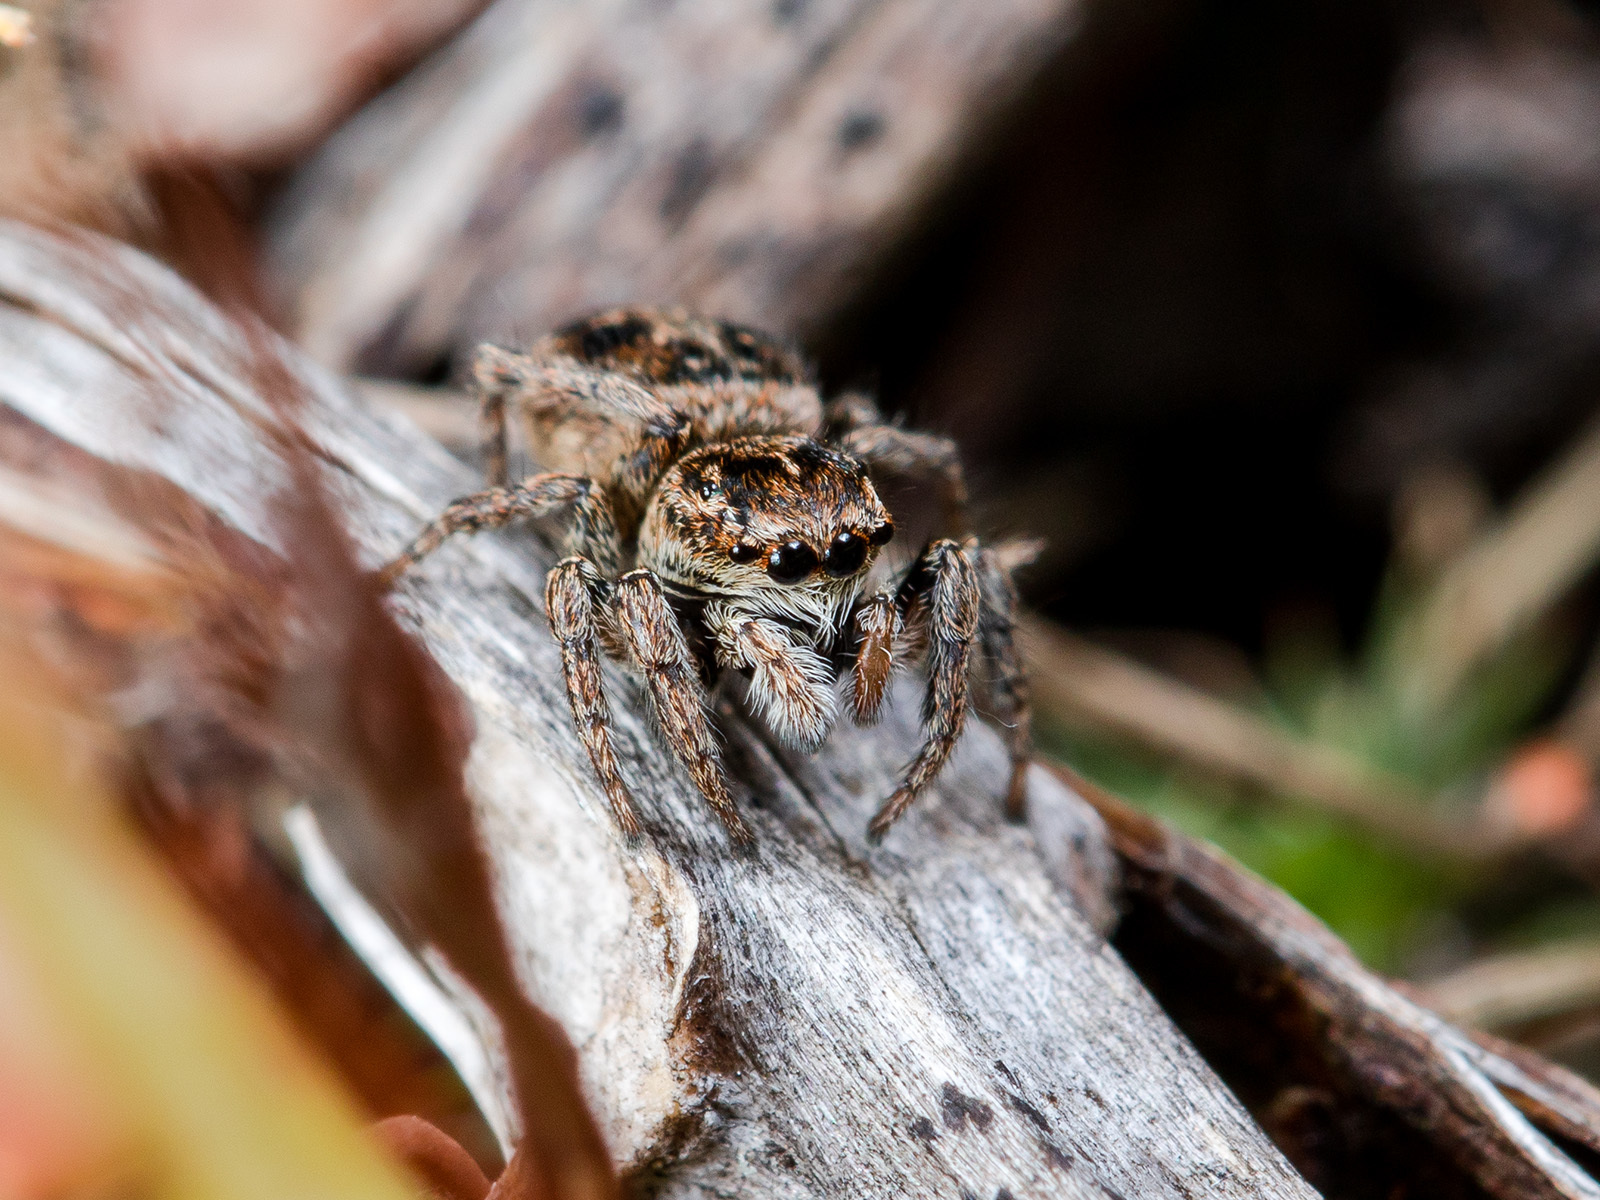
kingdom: Animalia
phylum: Arthropoda
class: Arachnida
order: Araneae
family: Salticidae
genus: Attulus
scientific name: Attulus talgarensis
